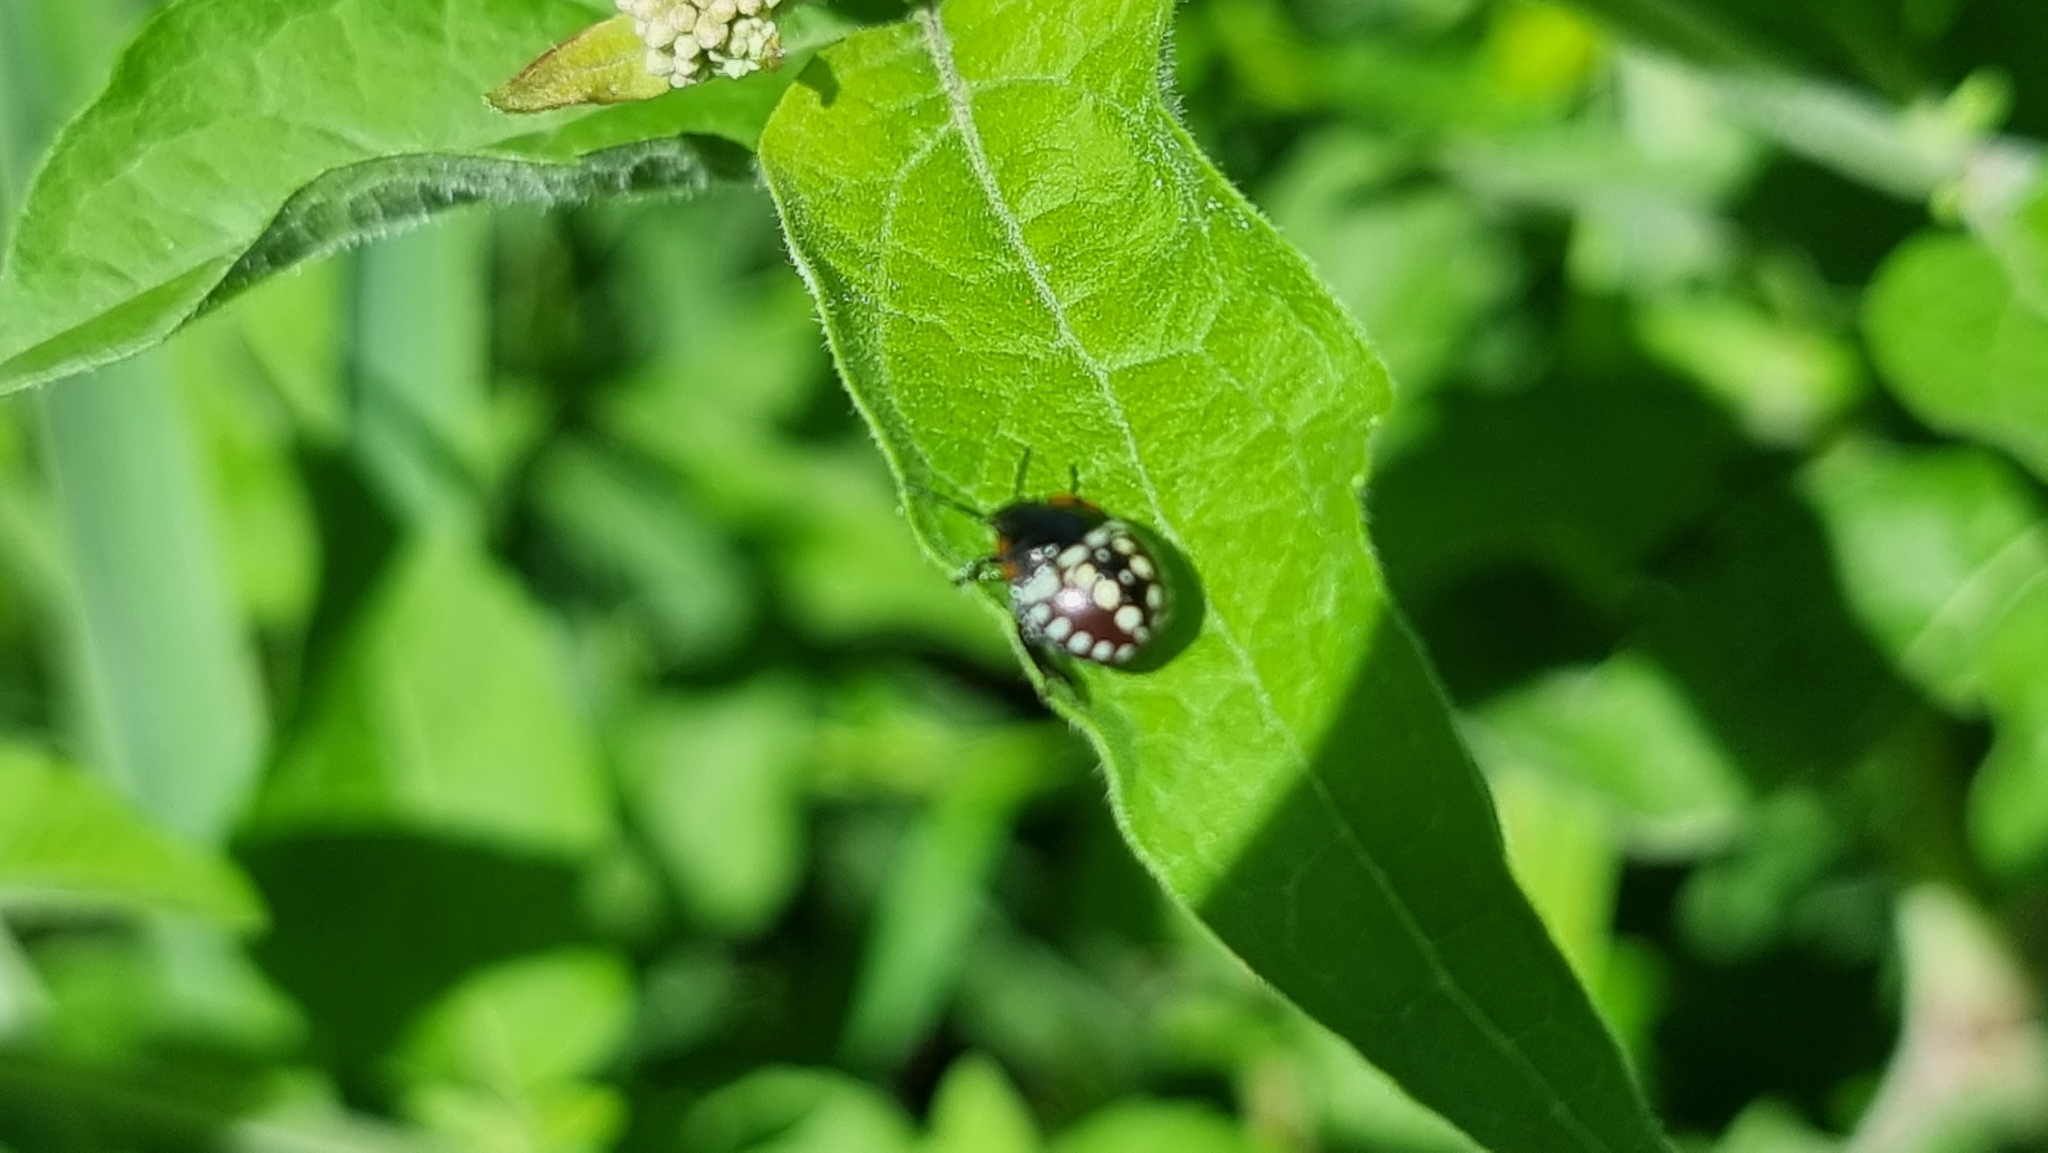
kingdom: Animalia
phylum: Arthropoda
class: Insecta
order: Hemiptera
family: Pentatomidae
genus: Nezara
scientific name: Nezara viridula
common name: Southern green stink bug
